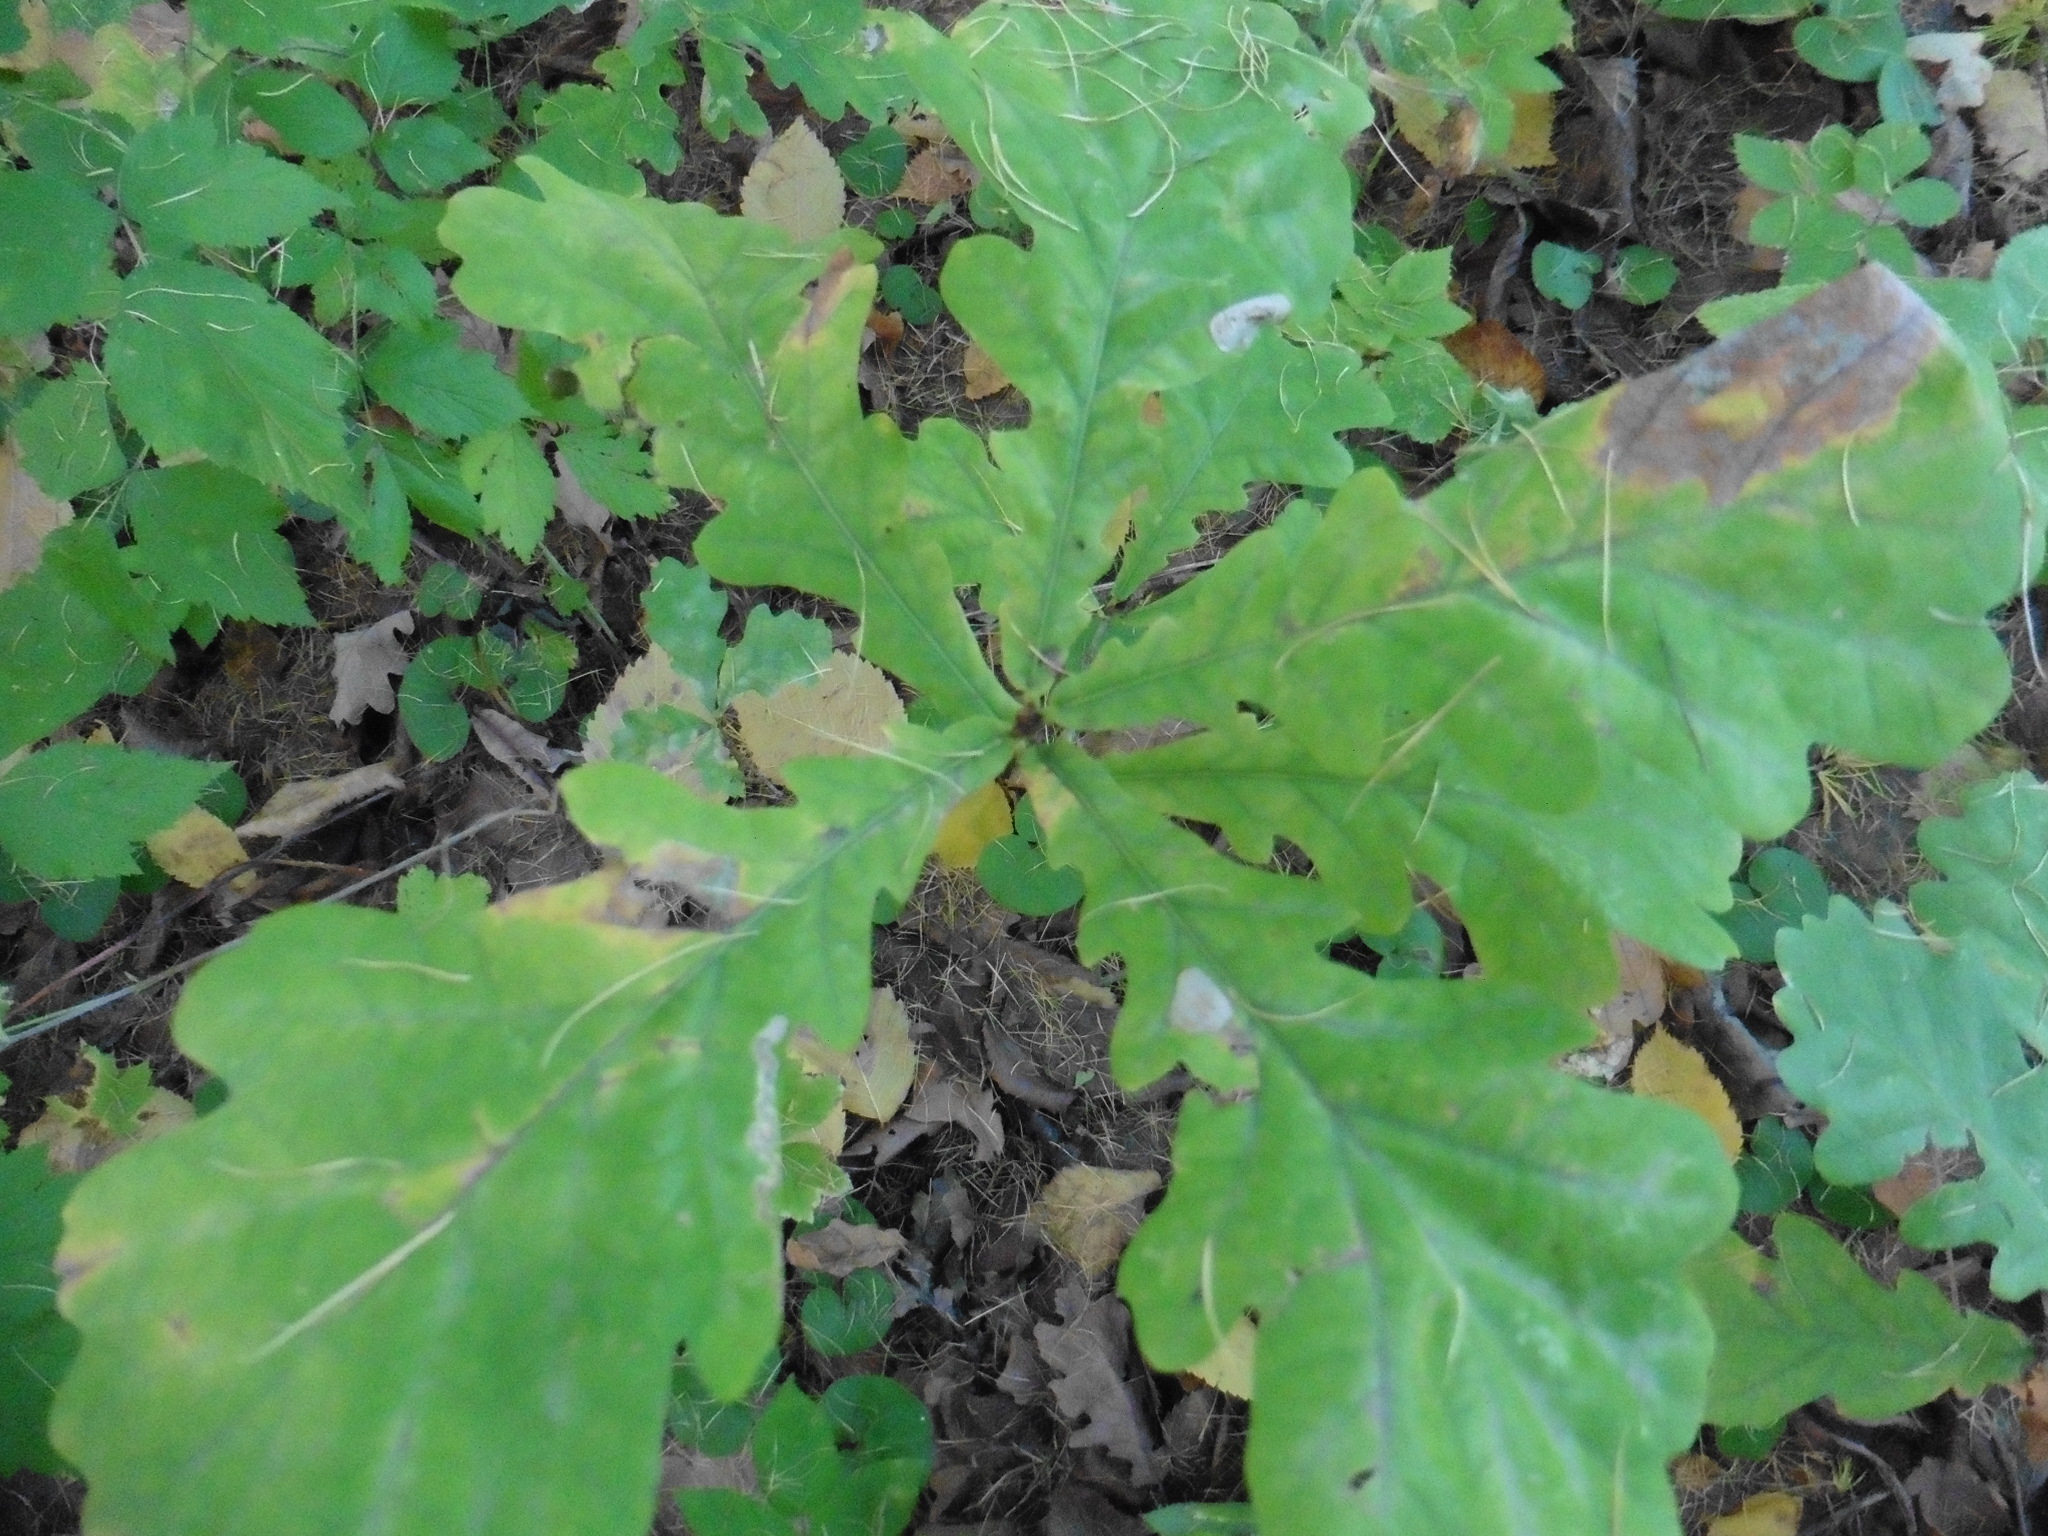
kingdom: Plantae
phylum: Tracheophyta
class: Magnoliopsida
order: Fagales
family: Fagaceae
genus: Quercus
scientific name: Quercus robur
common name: Pedunculate oak
